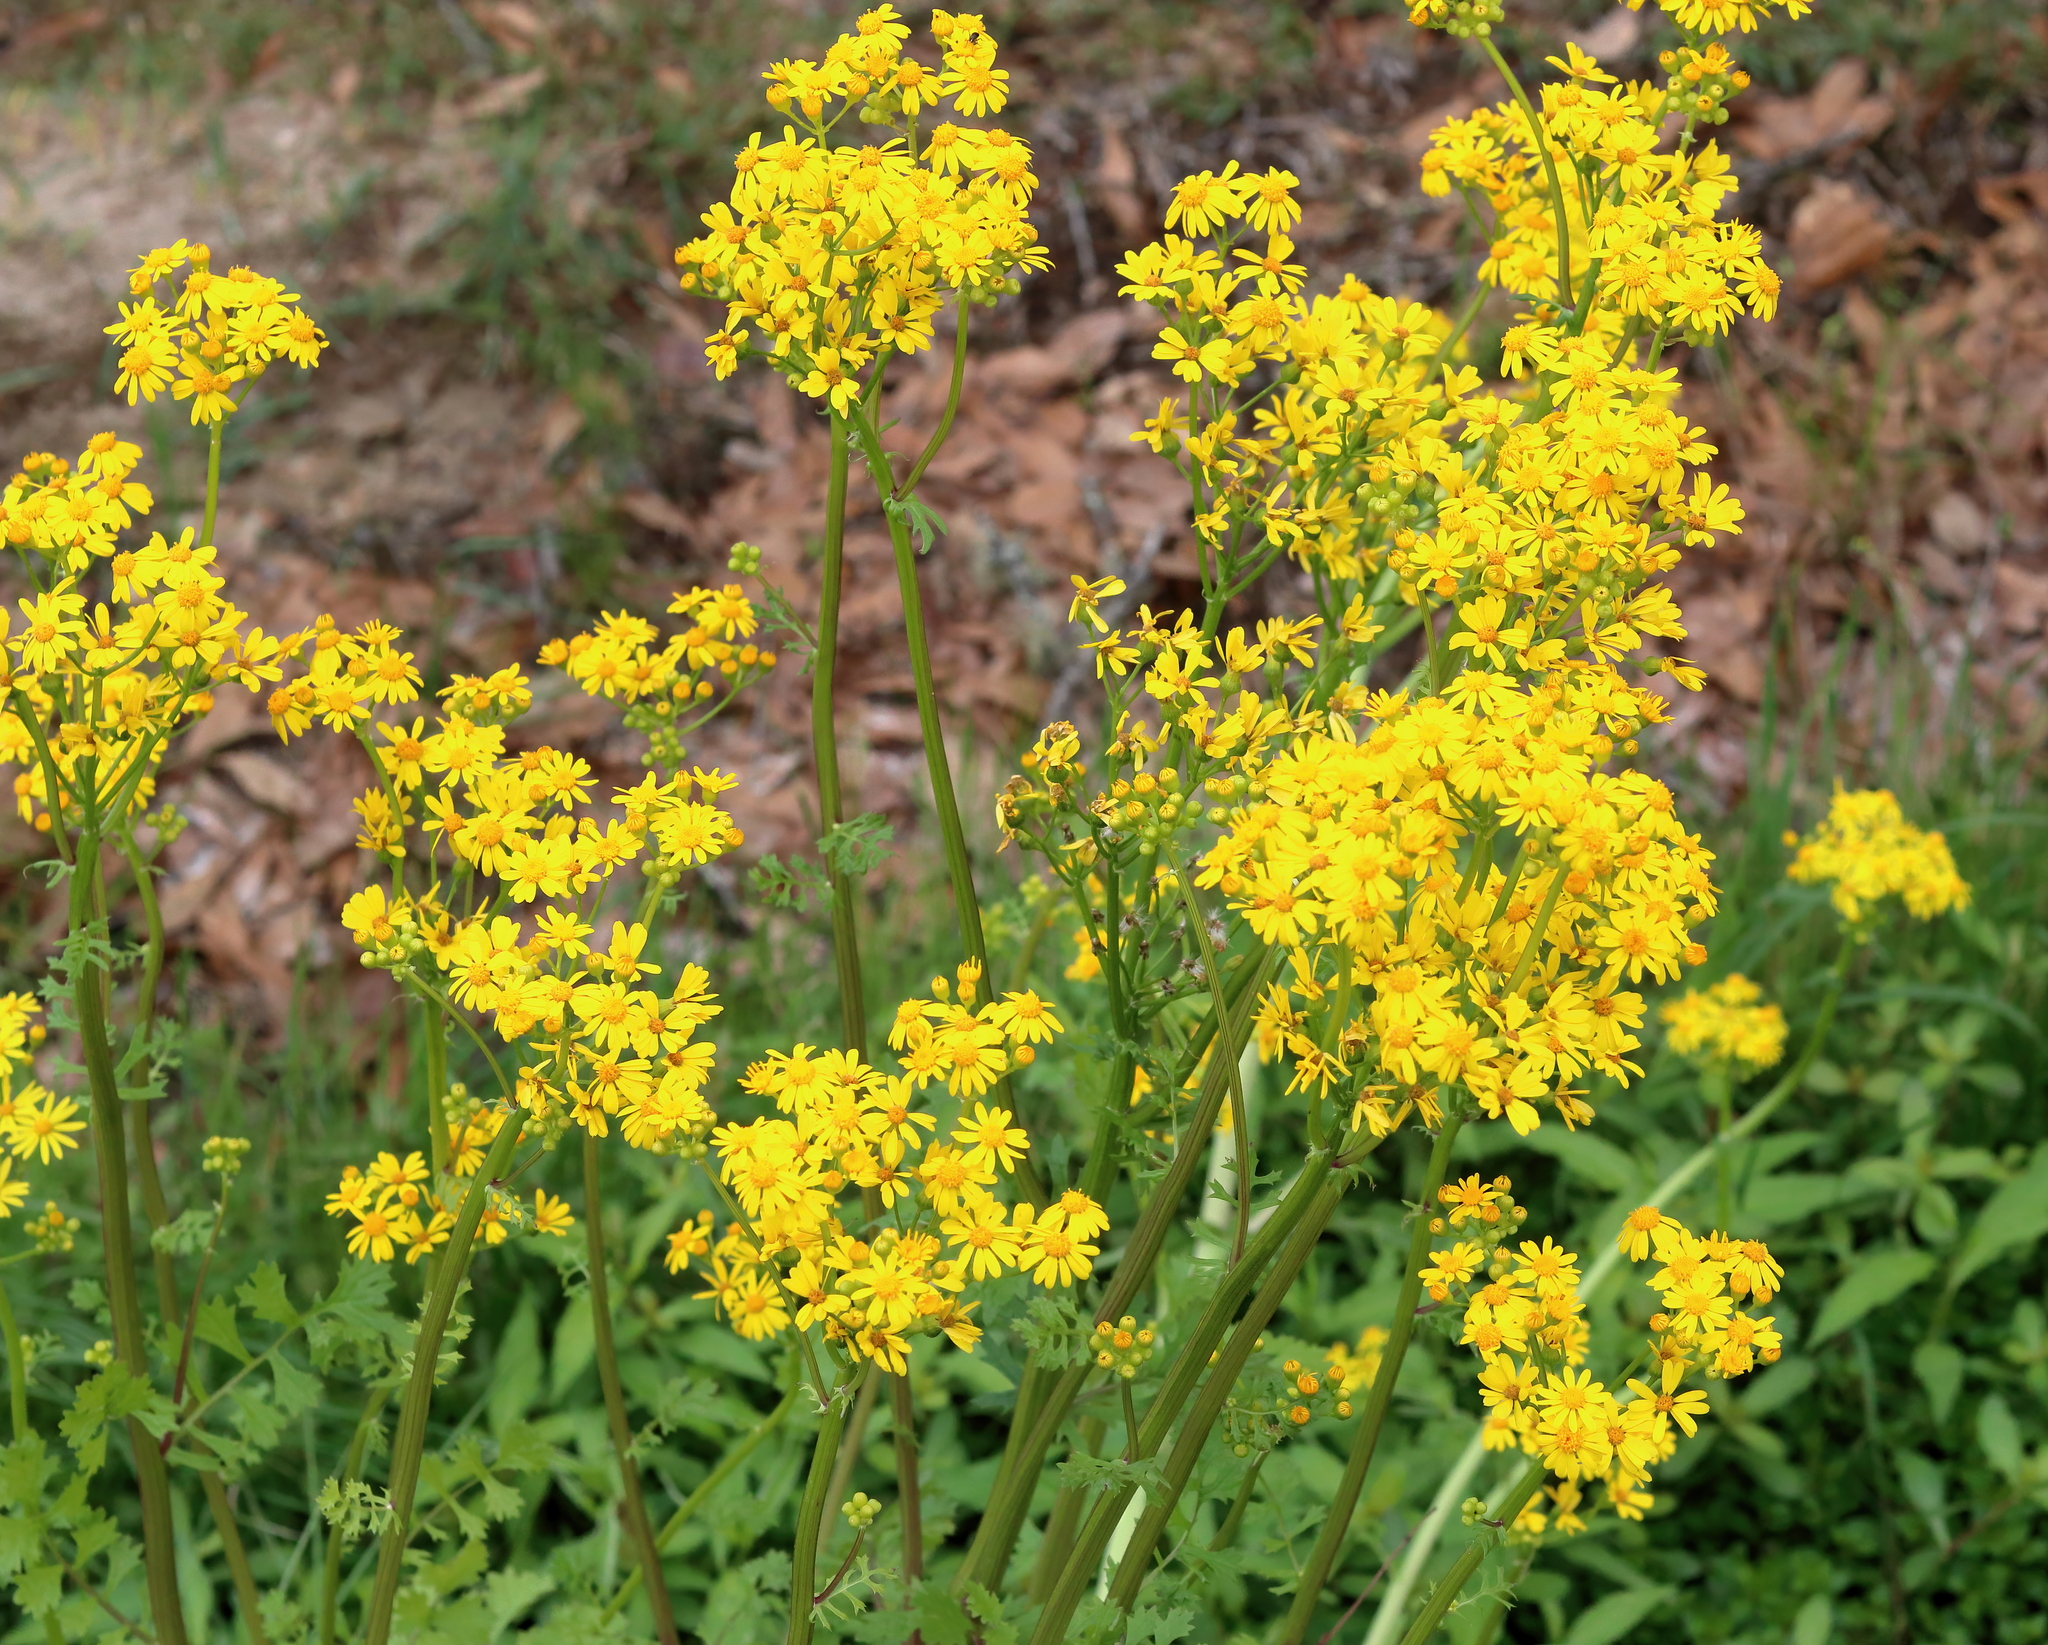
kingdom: Plantae
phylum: Tracheophyta
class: Magnoliopsida
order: Asterales
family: Asteraceae
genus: Packera
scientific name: Packera glabella
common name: Butterweed
